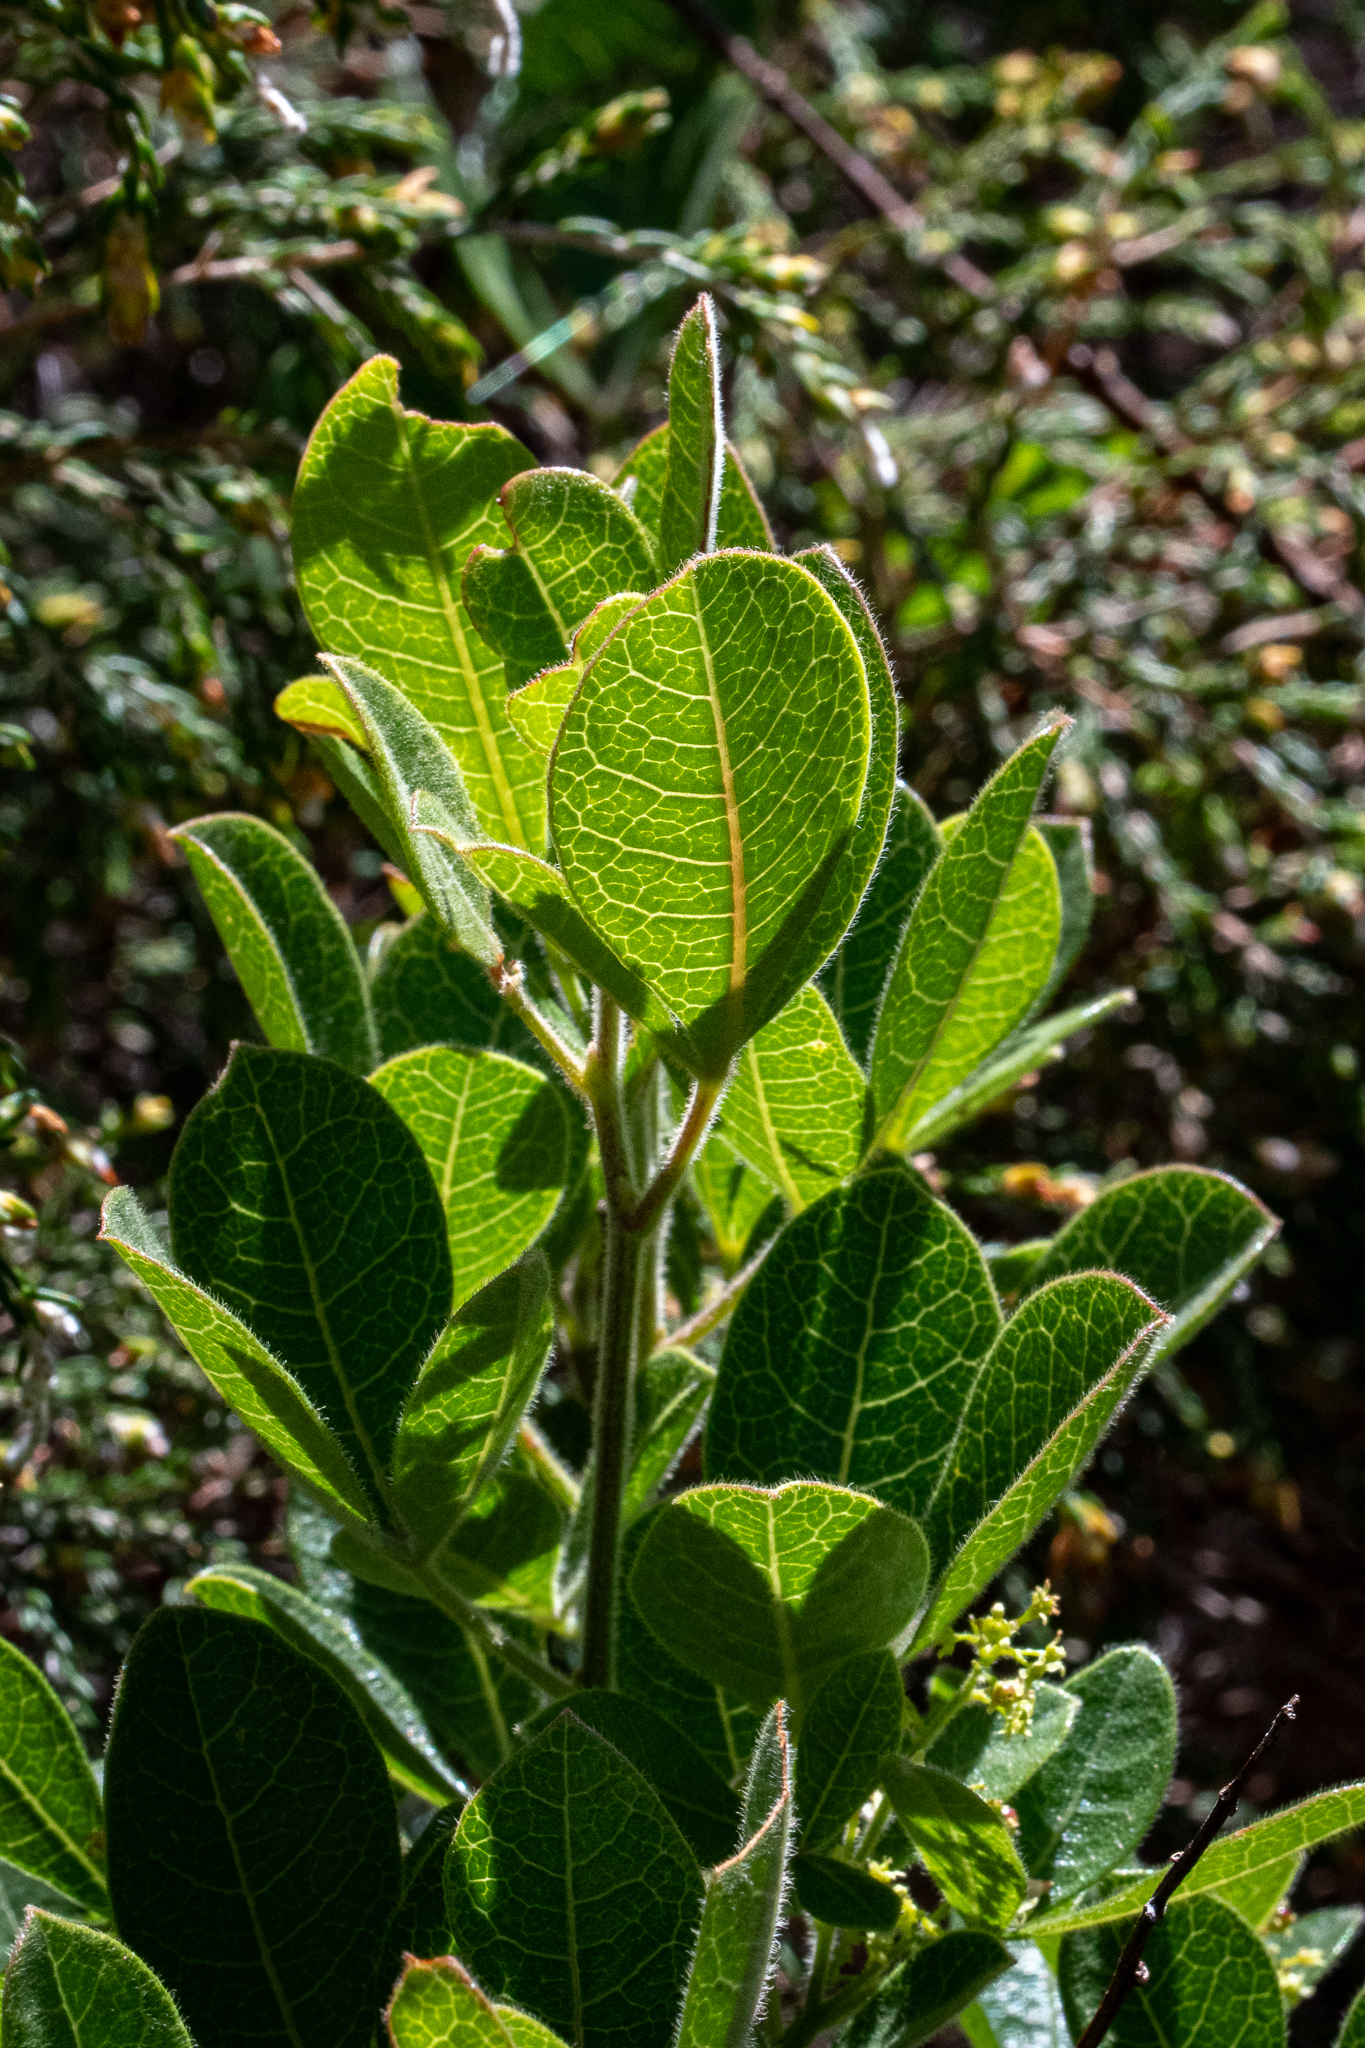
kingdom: Plantae
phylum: Tracheophyta
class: Magnoliopsida
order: Sapindales
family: Anacardiaceae
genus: Searsia
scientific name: Searsia laevigata
